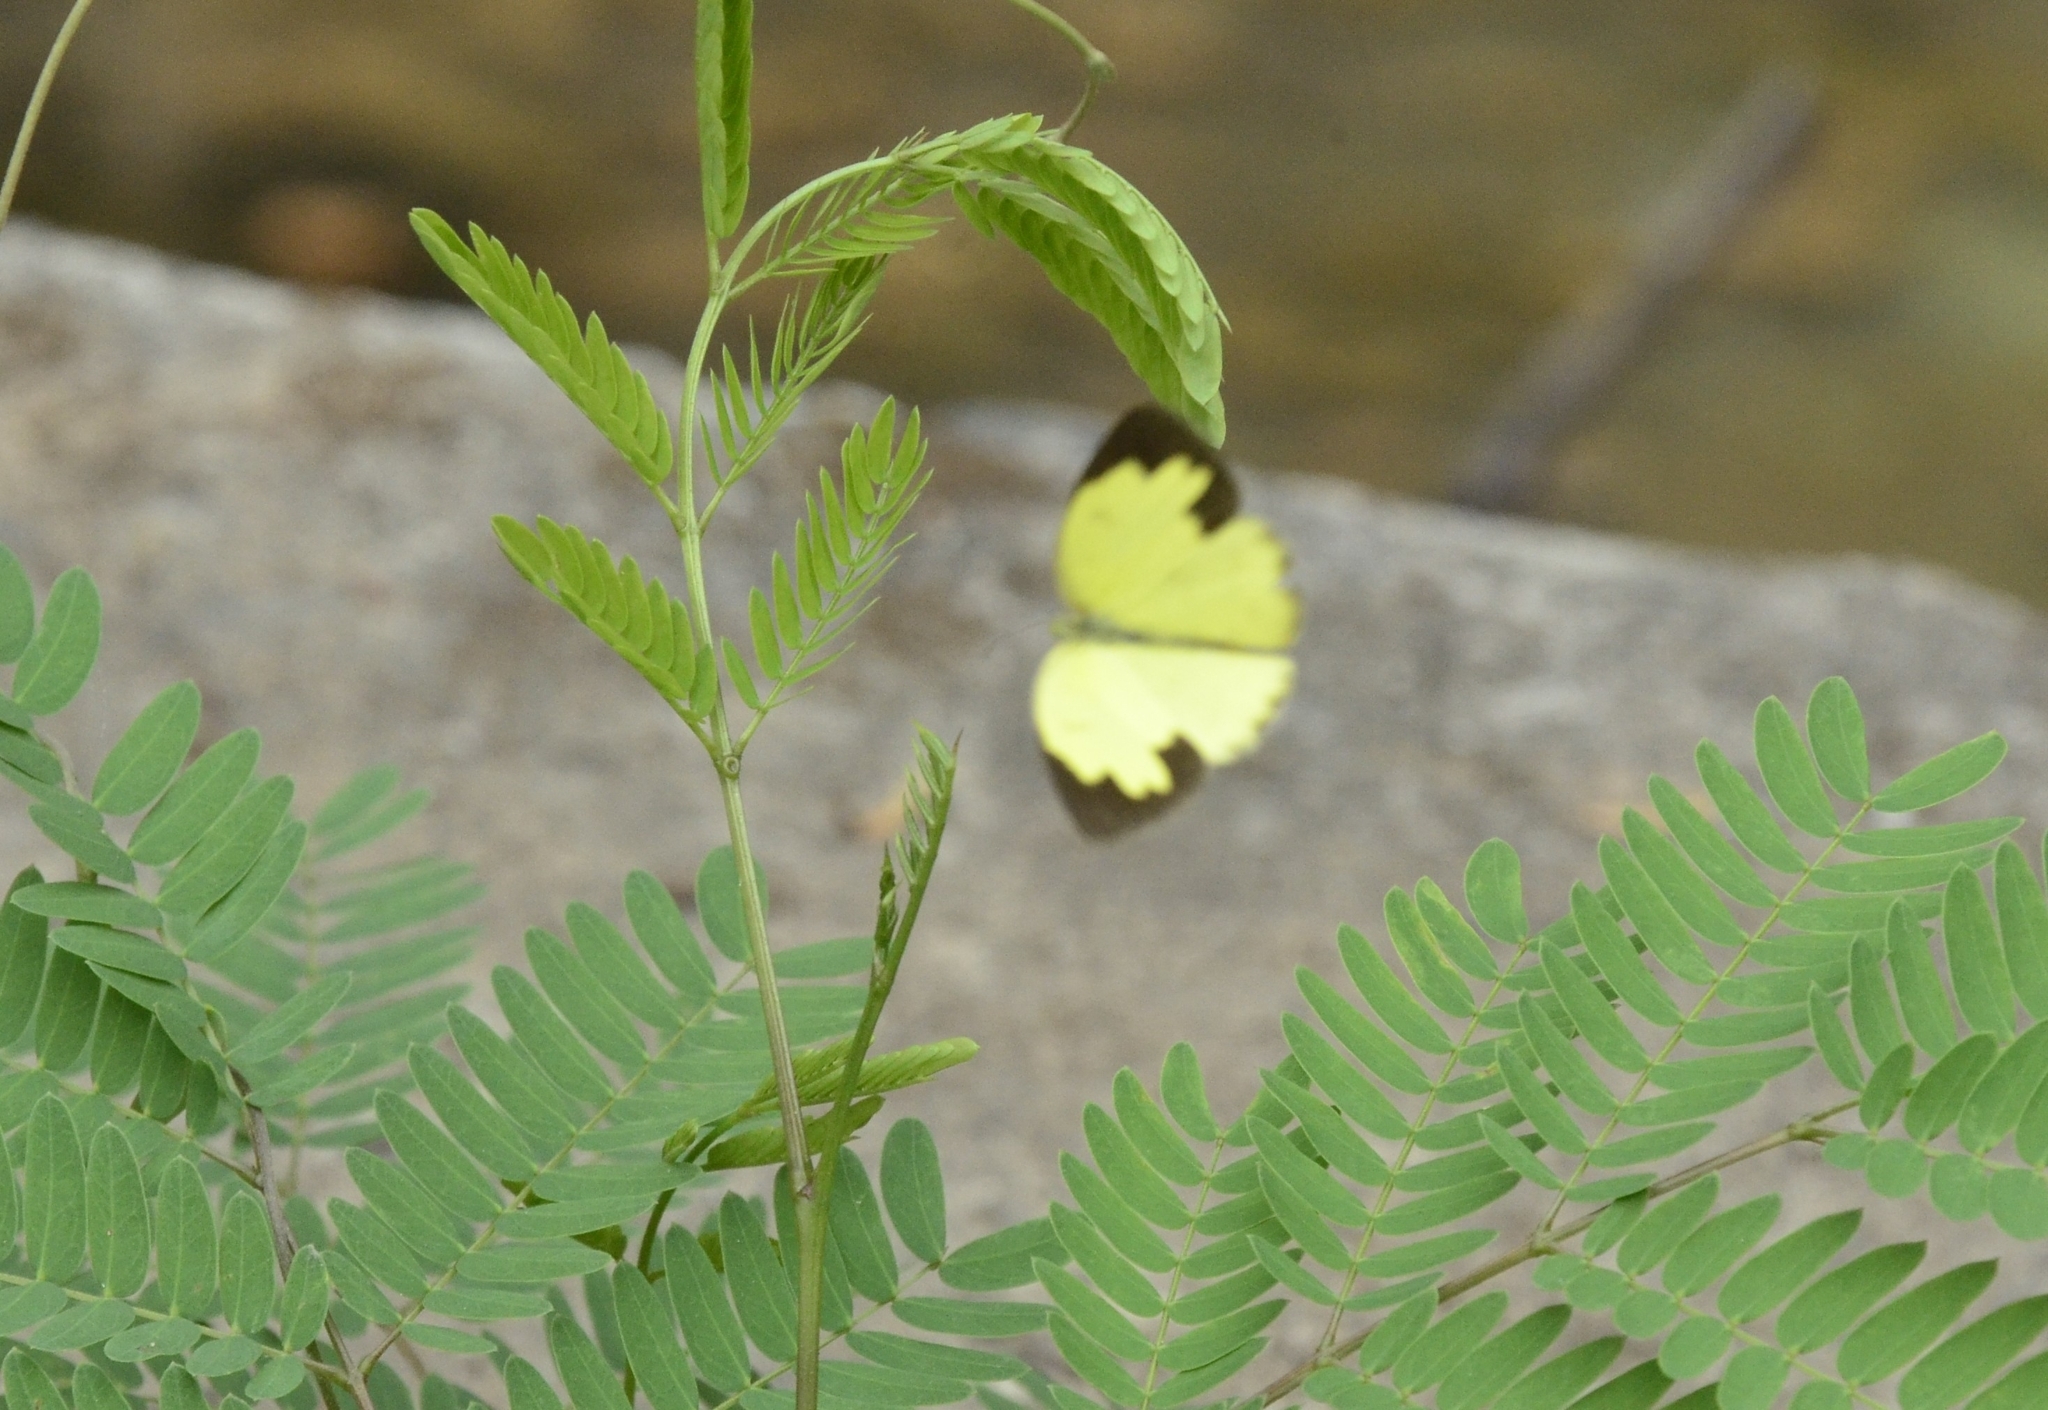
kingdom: Animalia
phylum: Arthropoda
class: Insecta
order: Lepidoptera
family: Pieridae
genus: Eurema
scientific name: Eurema hecabe
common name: Pale grass yellow
